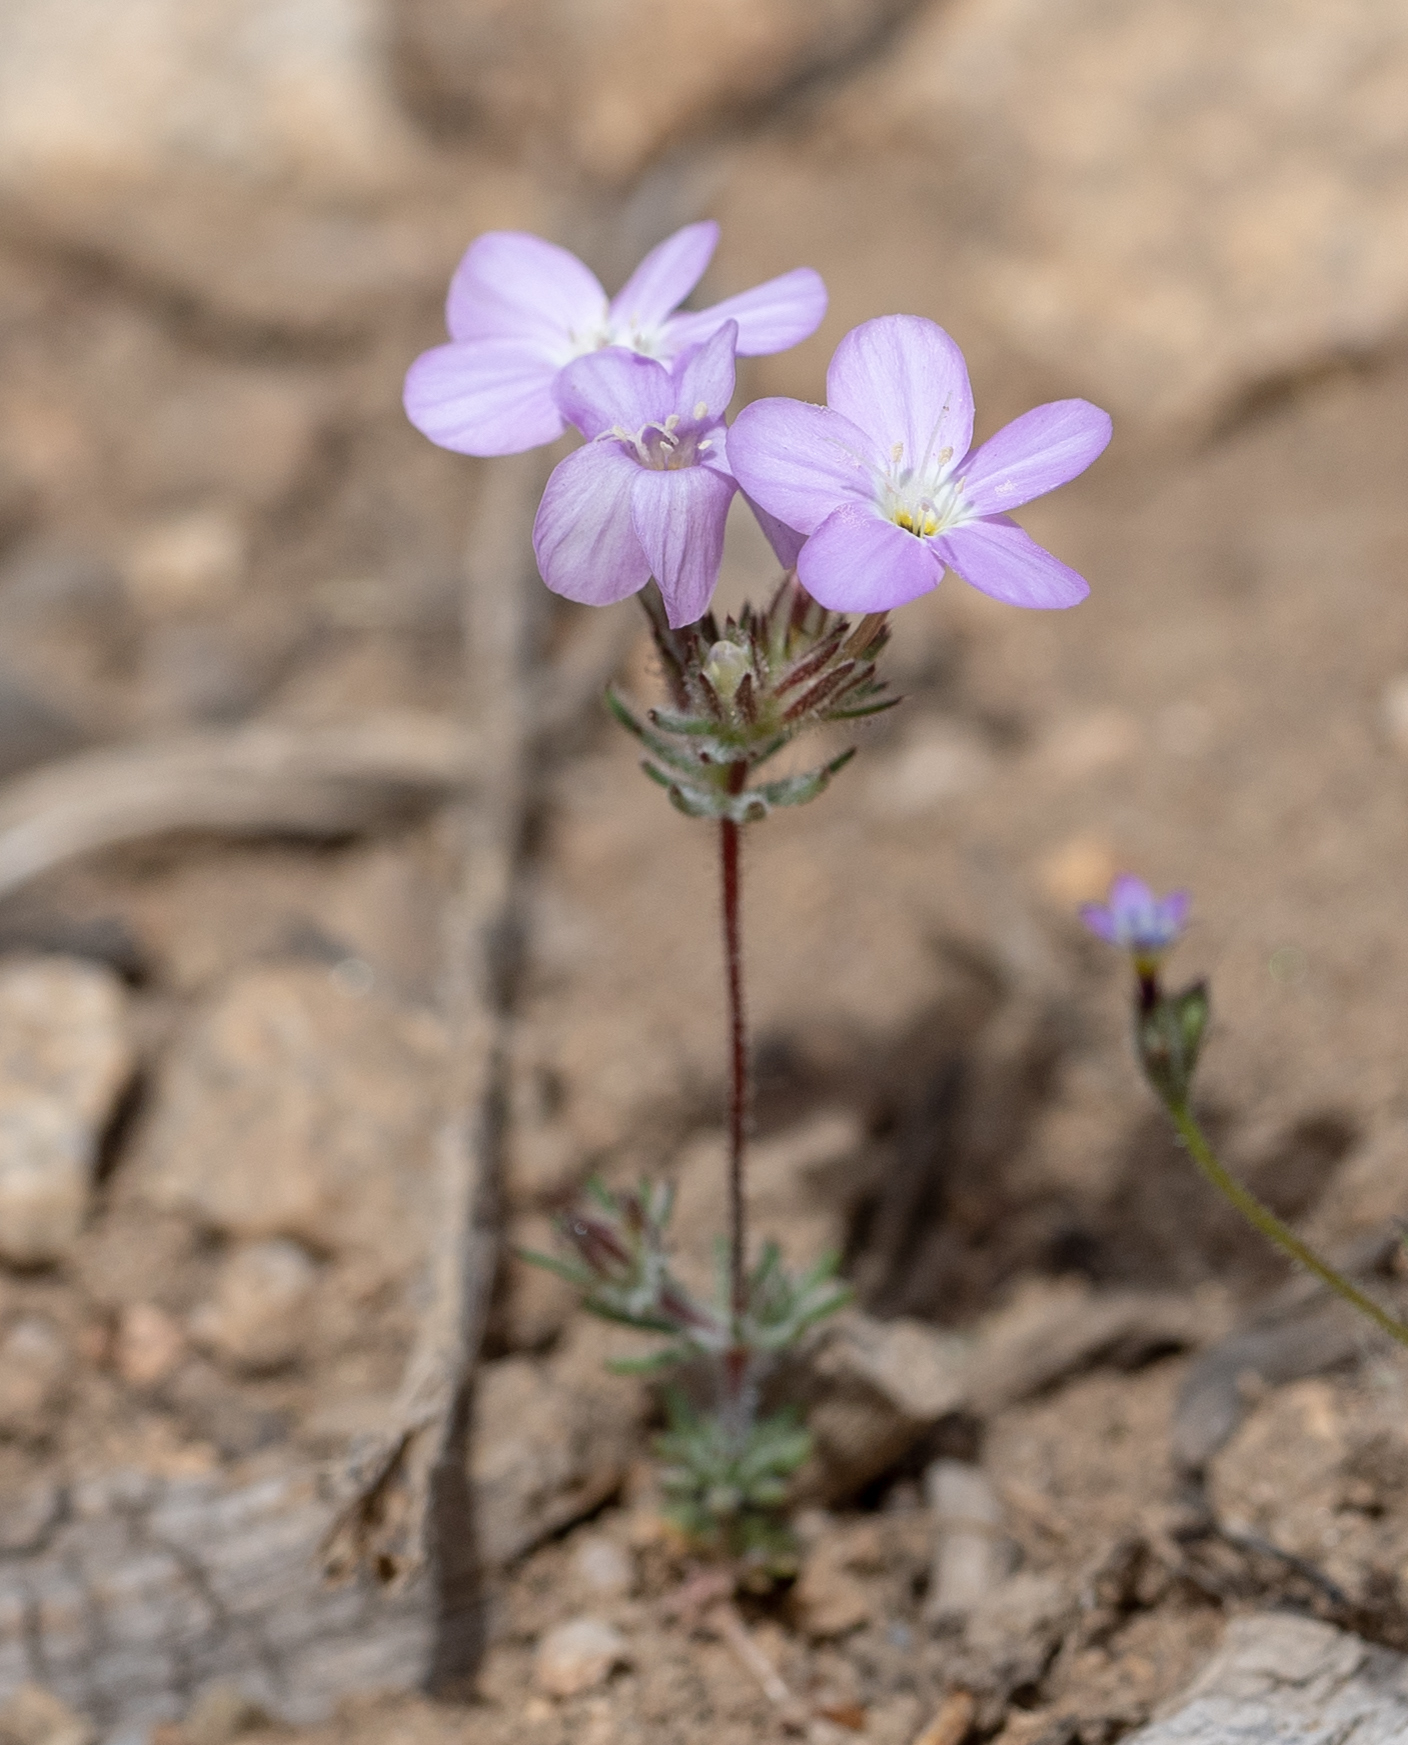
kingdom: Plantae
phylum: Tracheophyta
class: Magnoliopsida
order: Ericales
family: Polemoniaceae
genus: Leptosiphon
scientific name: Leptosiphon breviculus
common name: Mojave linanthus
